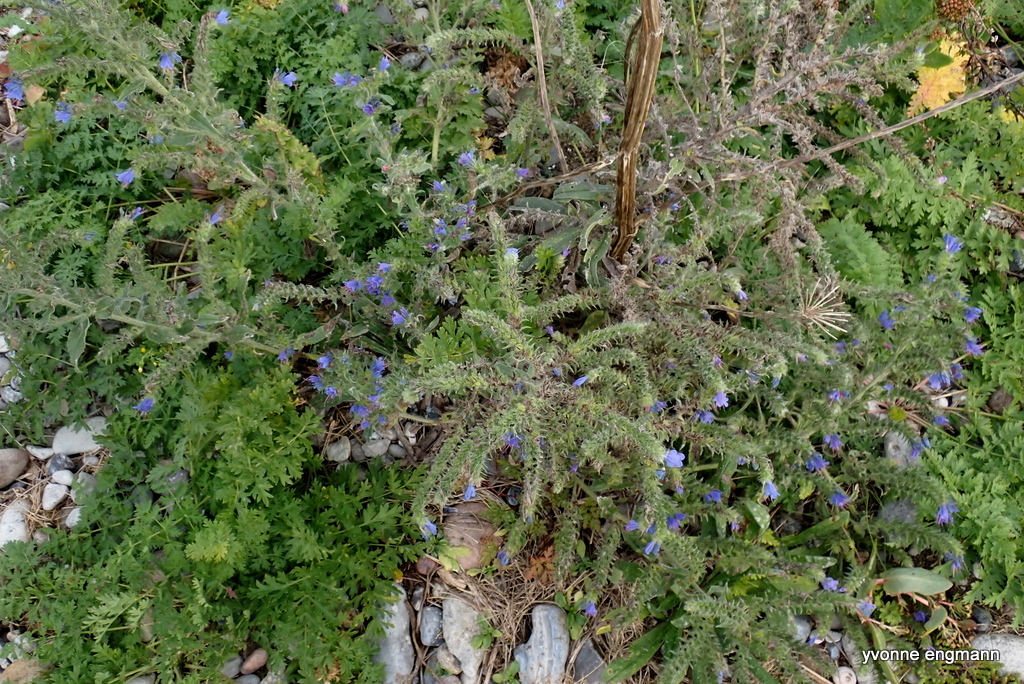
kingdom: Plantae
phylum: Tracheophyta
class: Magnoliopsida
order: Boraginales
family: Boraginaceae
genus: Echium
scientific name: Echium vulgare
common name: Common viper's bugloss
